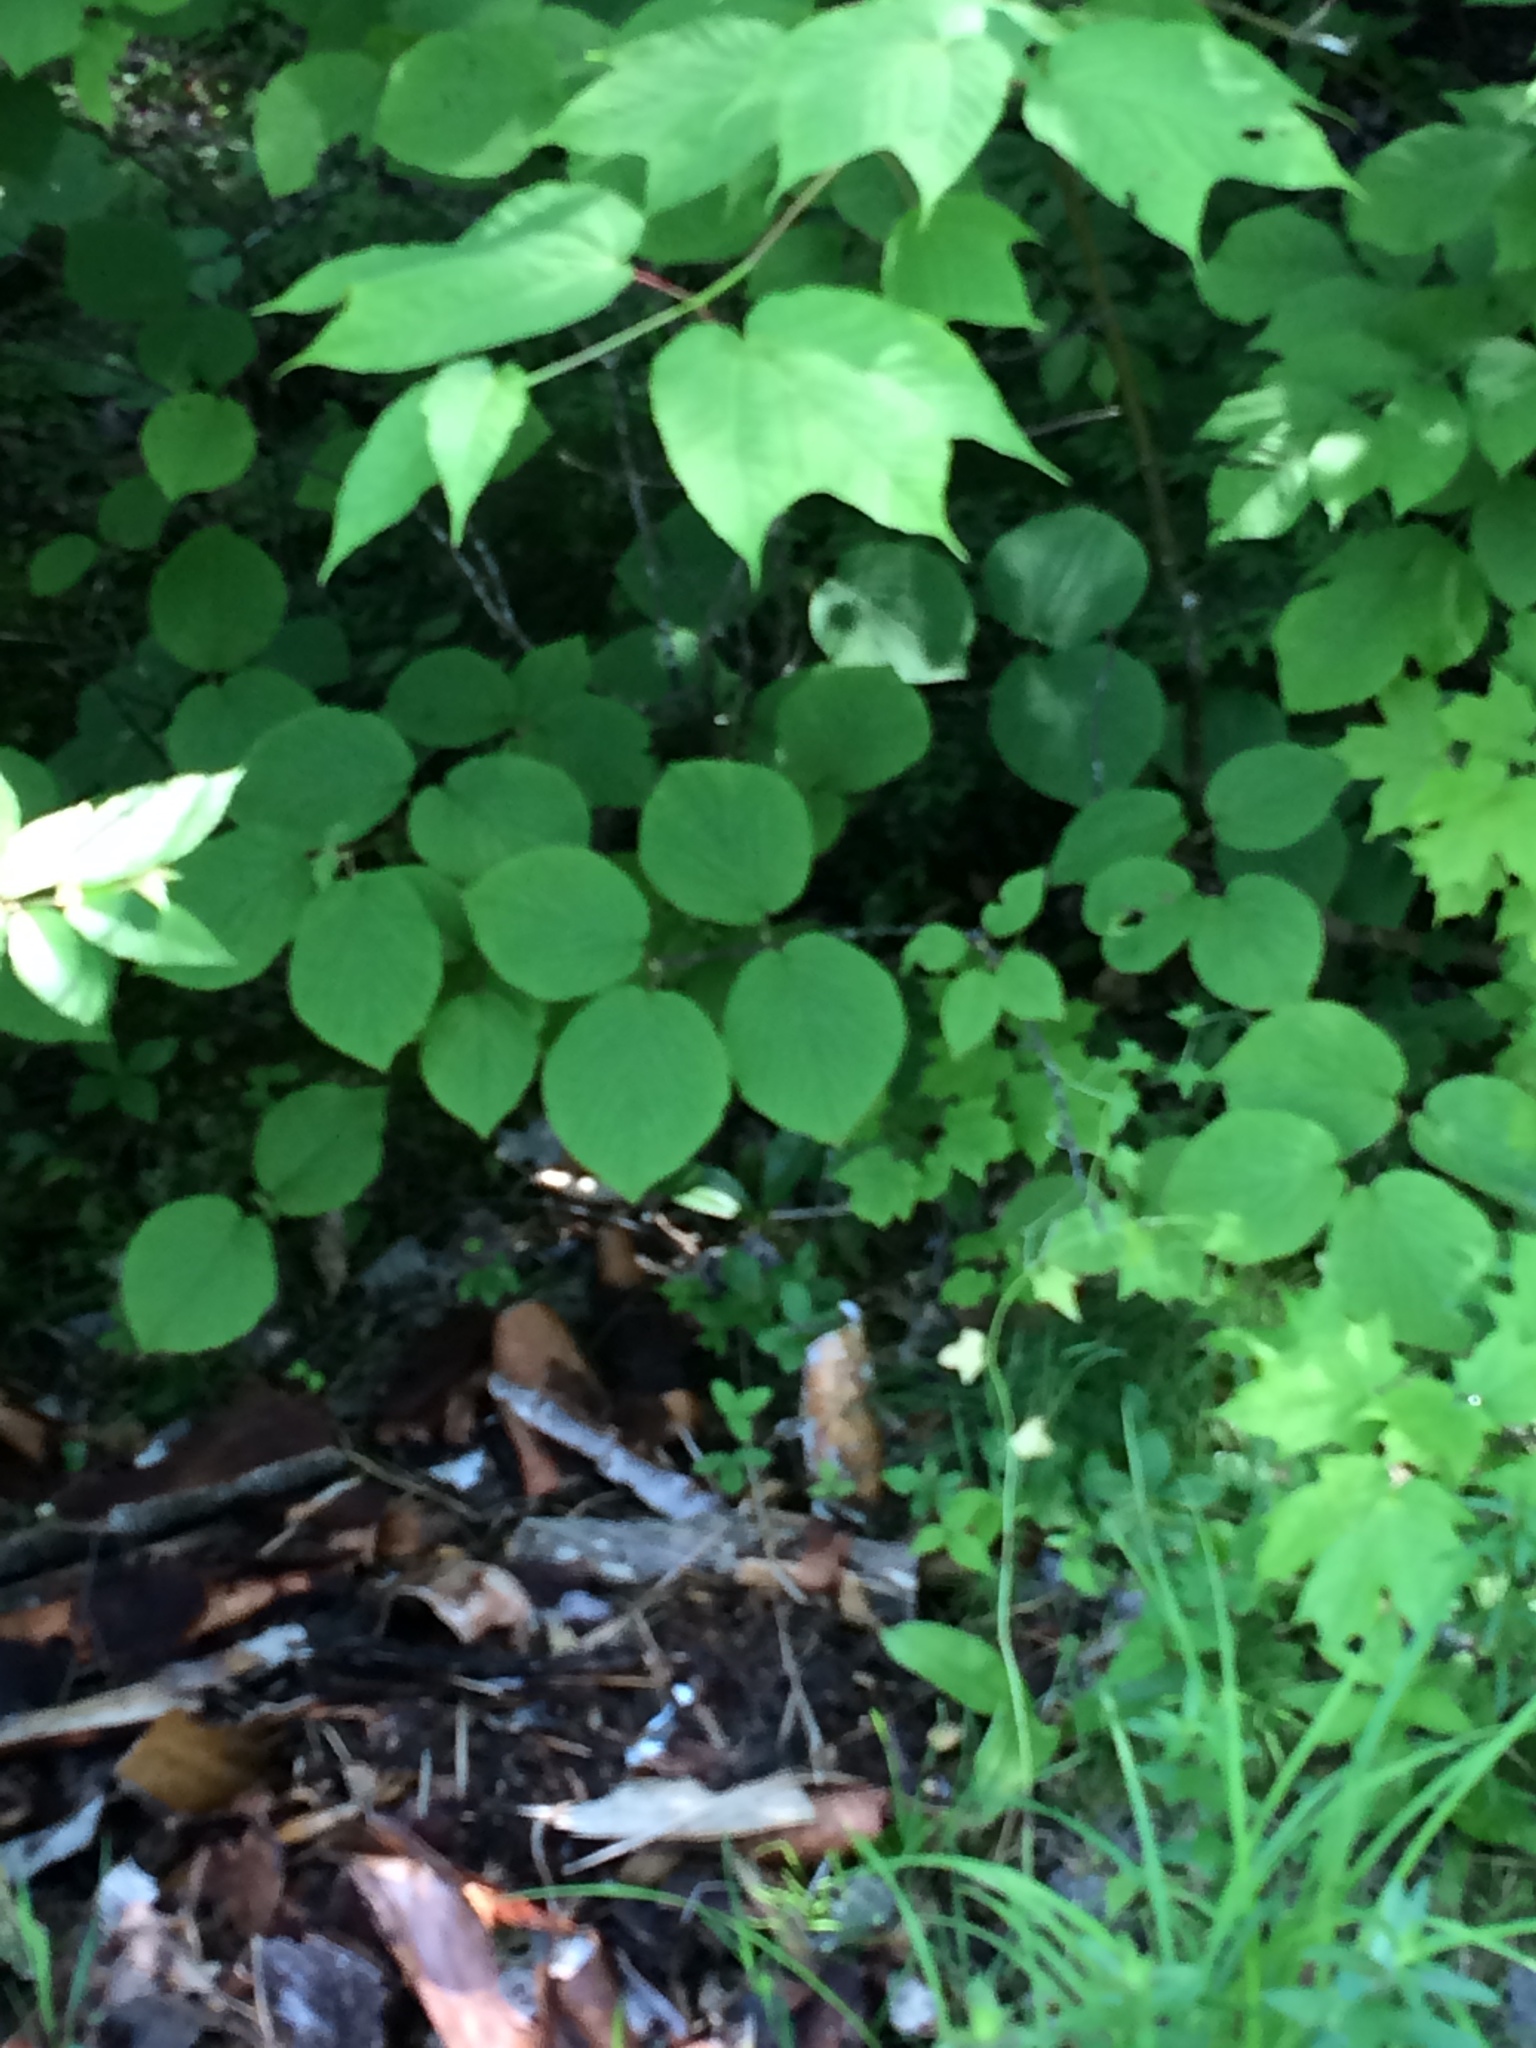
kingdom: Plantae
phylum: Tracheophyta
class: Magnoliopsida
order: Dipsacales
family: Viburnaceae
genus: Viburnum
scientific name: Viburnum lantanoides
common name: Hobblebush
